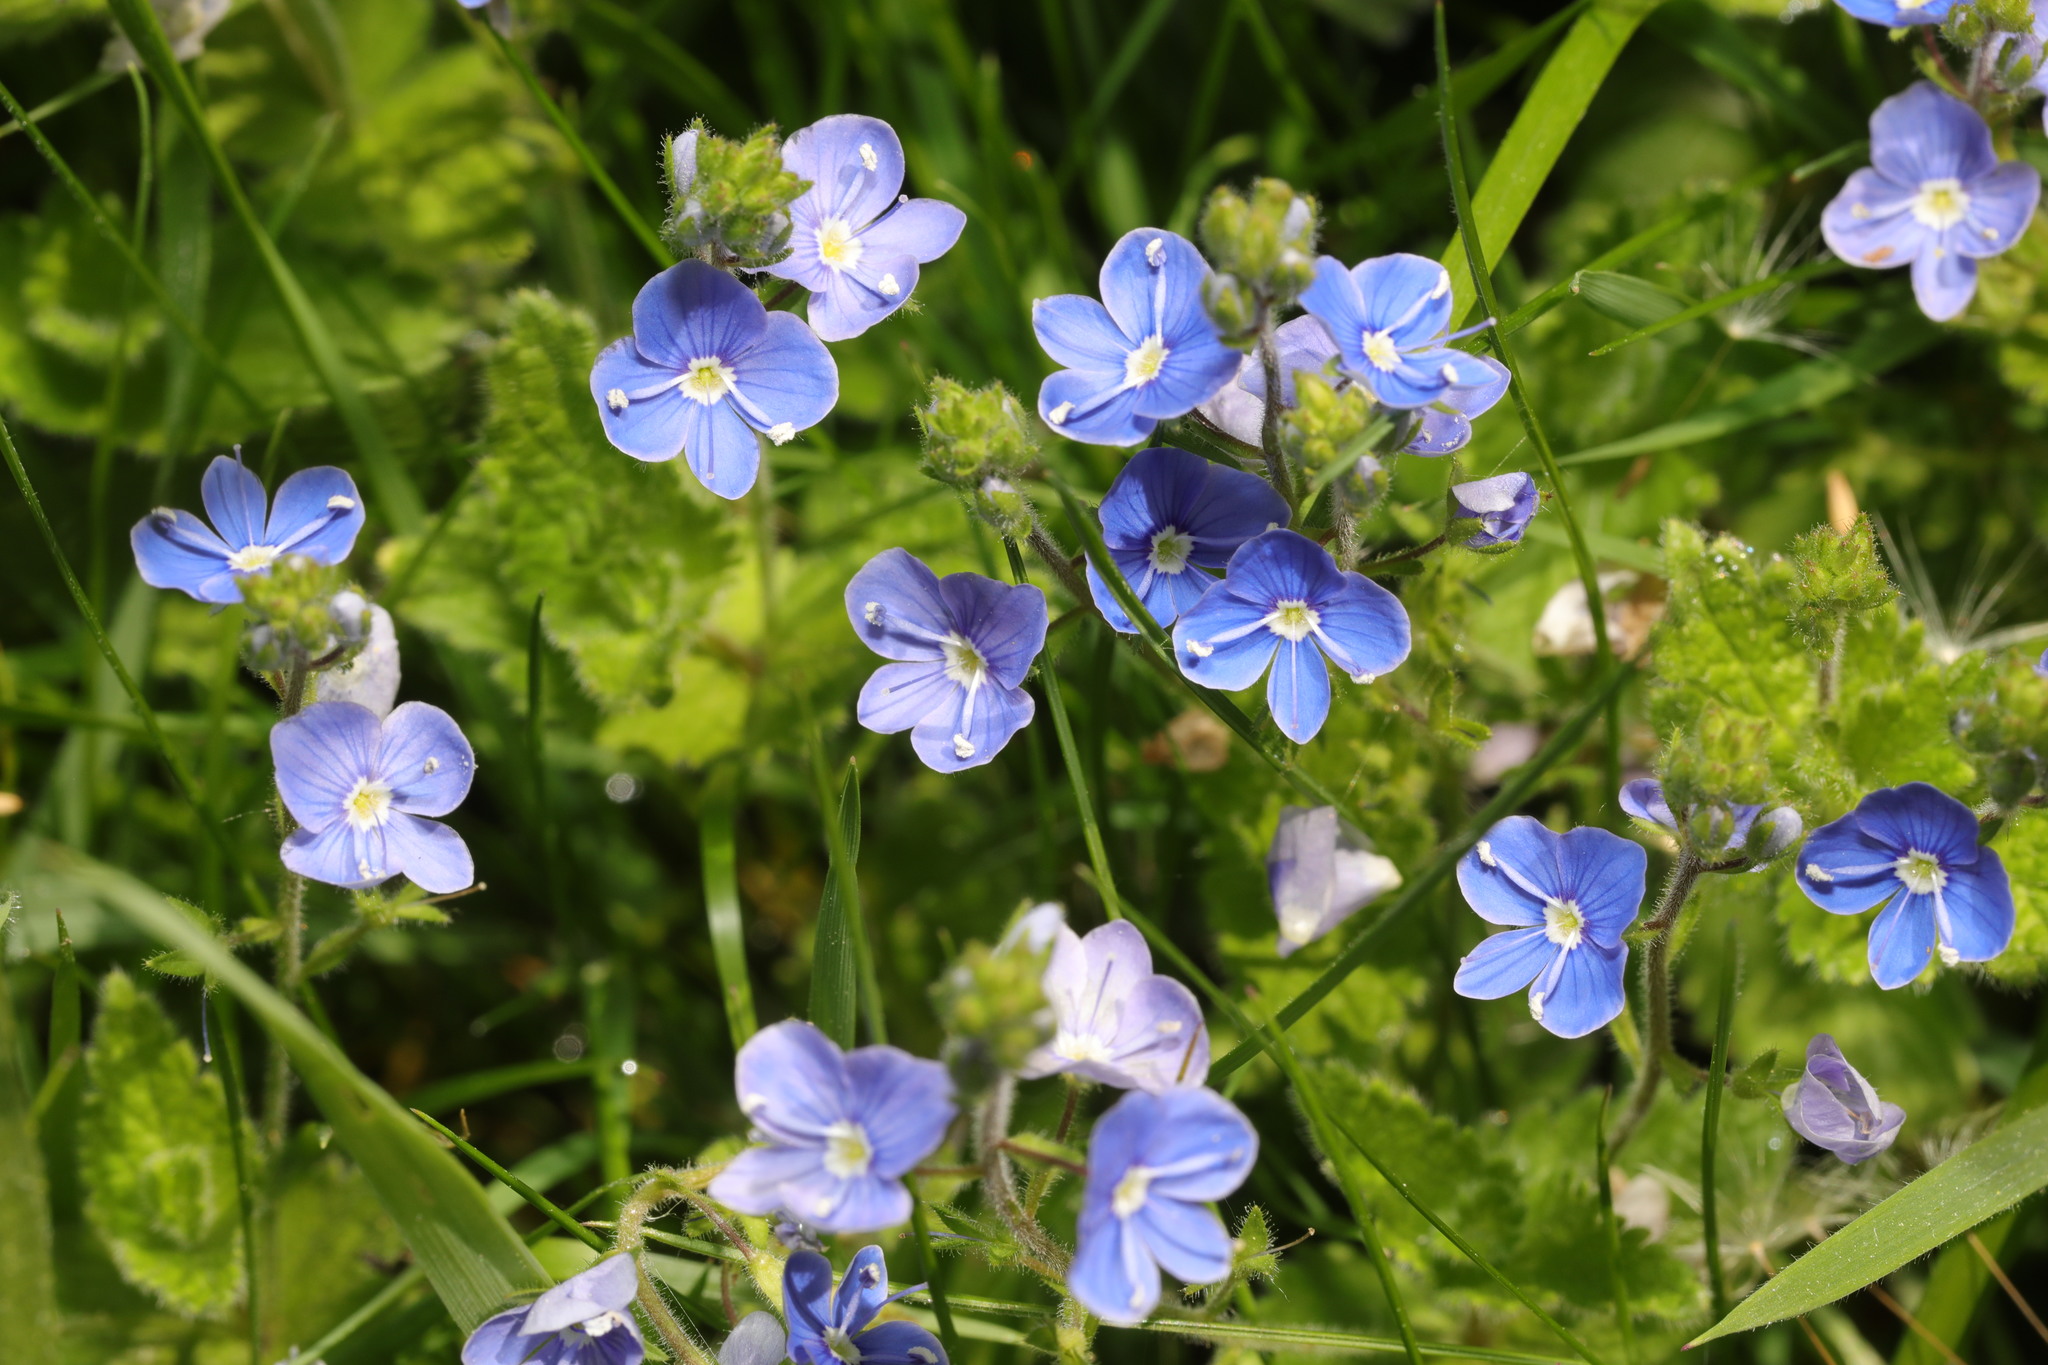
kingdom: Plantae
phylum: Tracheophyta
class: Magnoliopsida
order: Lamiales
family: Plantaginaceae
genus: Veronica
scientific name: Veronica chamaedrys
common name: Germander speedwell
